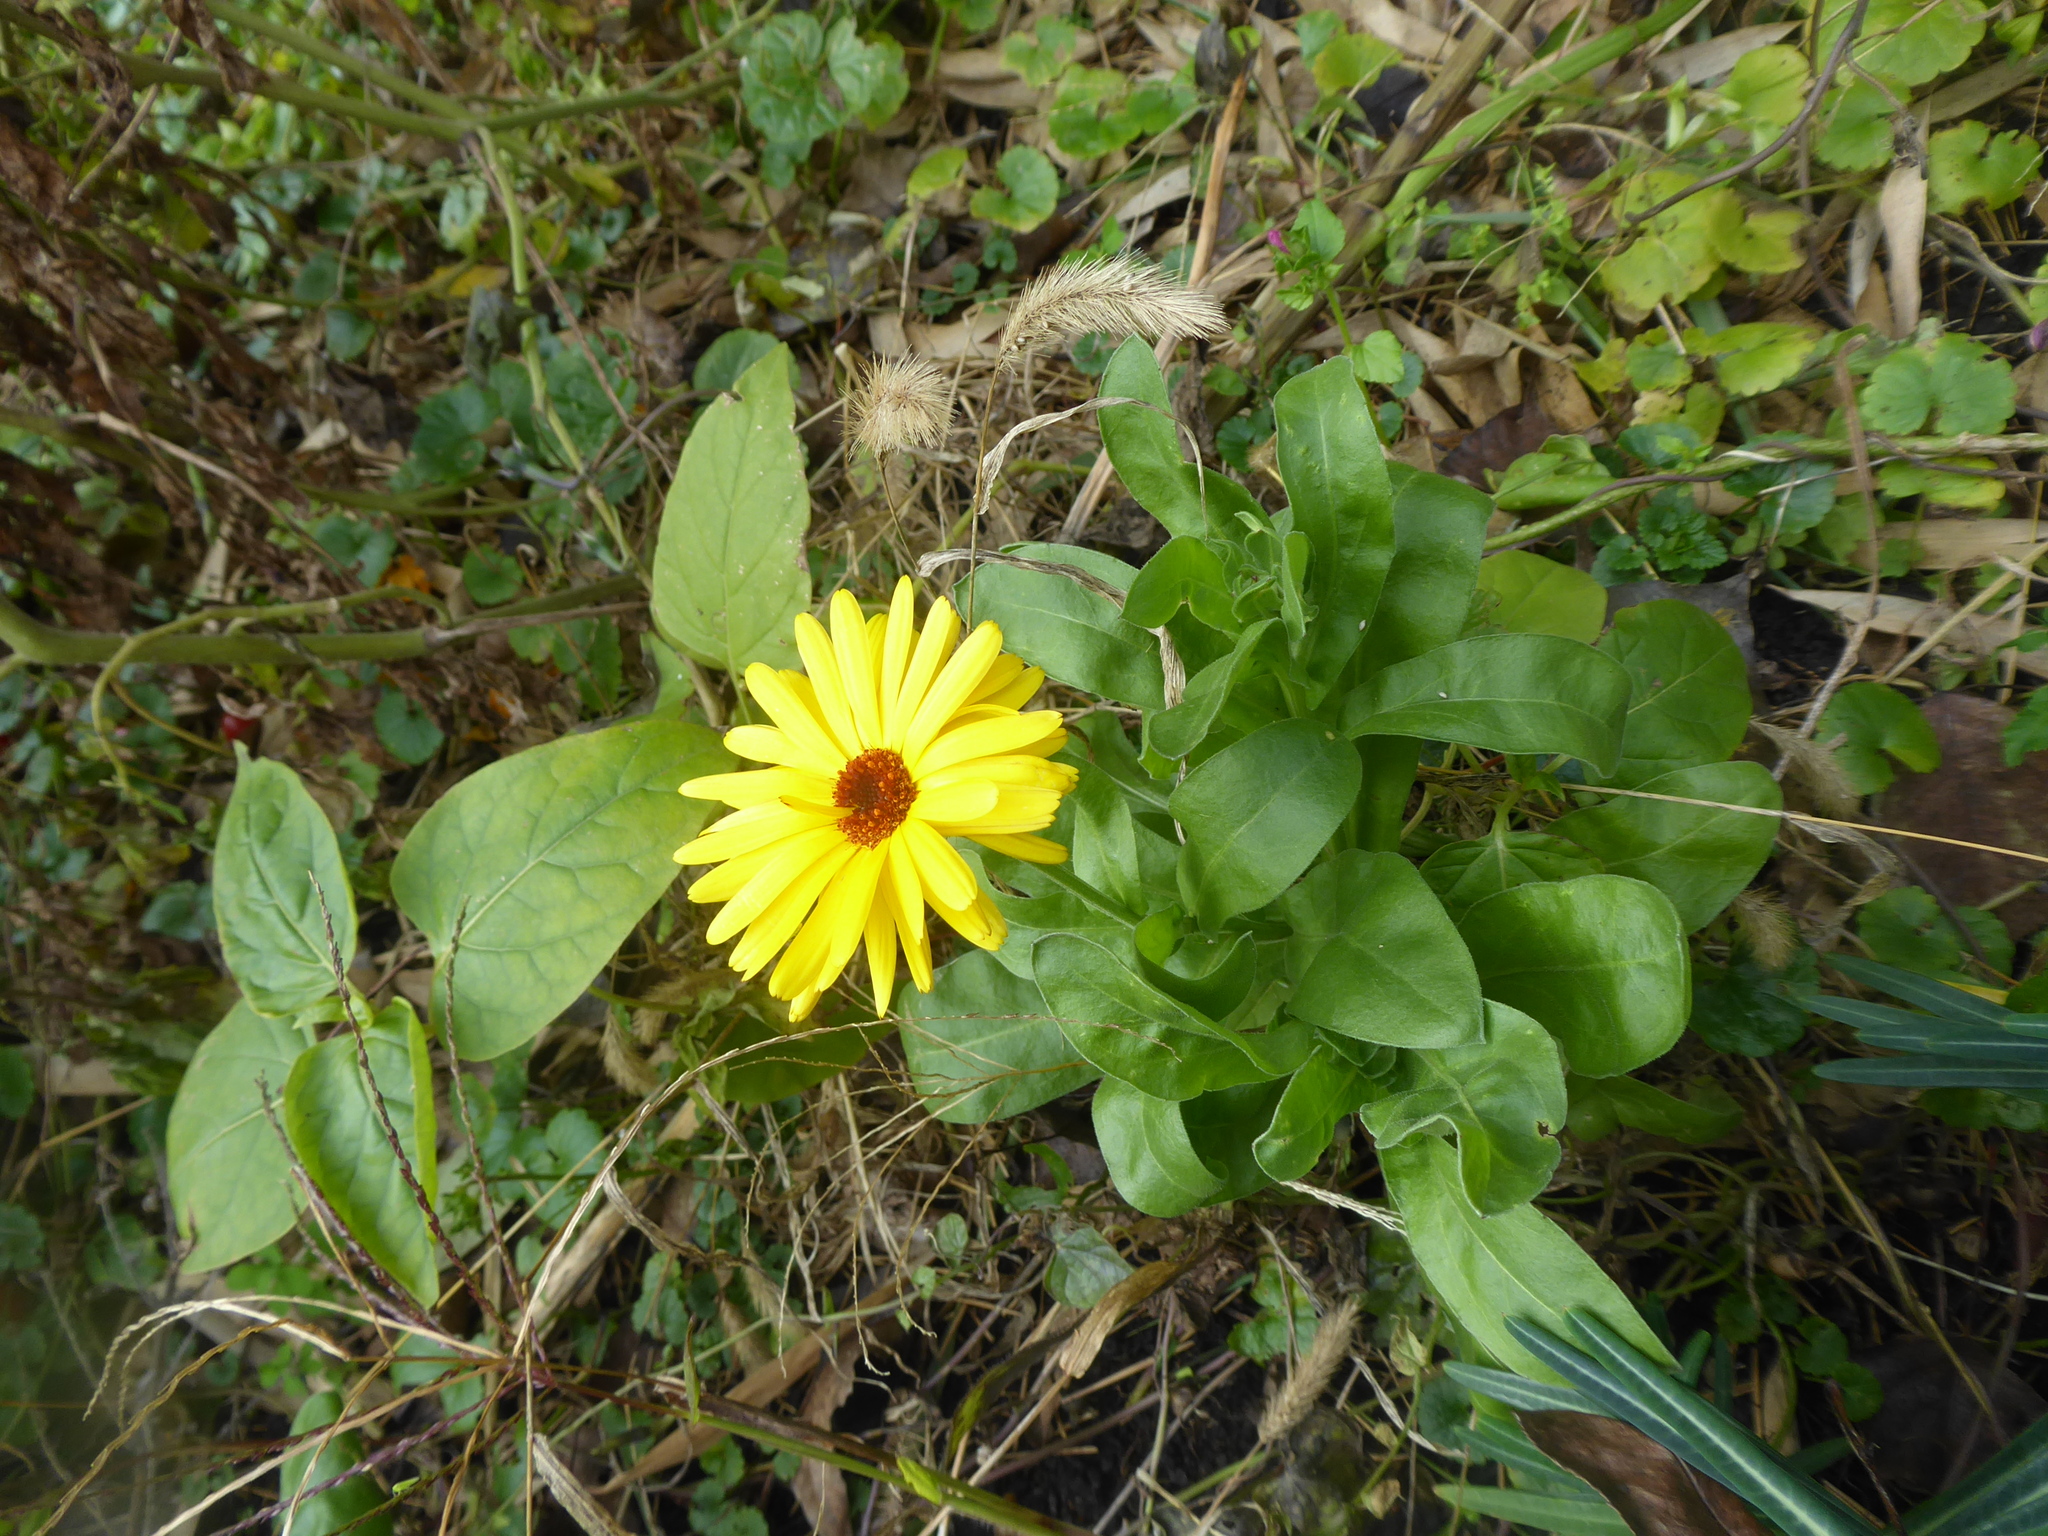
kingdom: Plantae
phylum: Tracheophyta
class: Magnoliopsida
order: Asterales
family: Asteraceae
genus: Erigeron
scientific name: Erigeron annuus
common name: Tall fleabane
